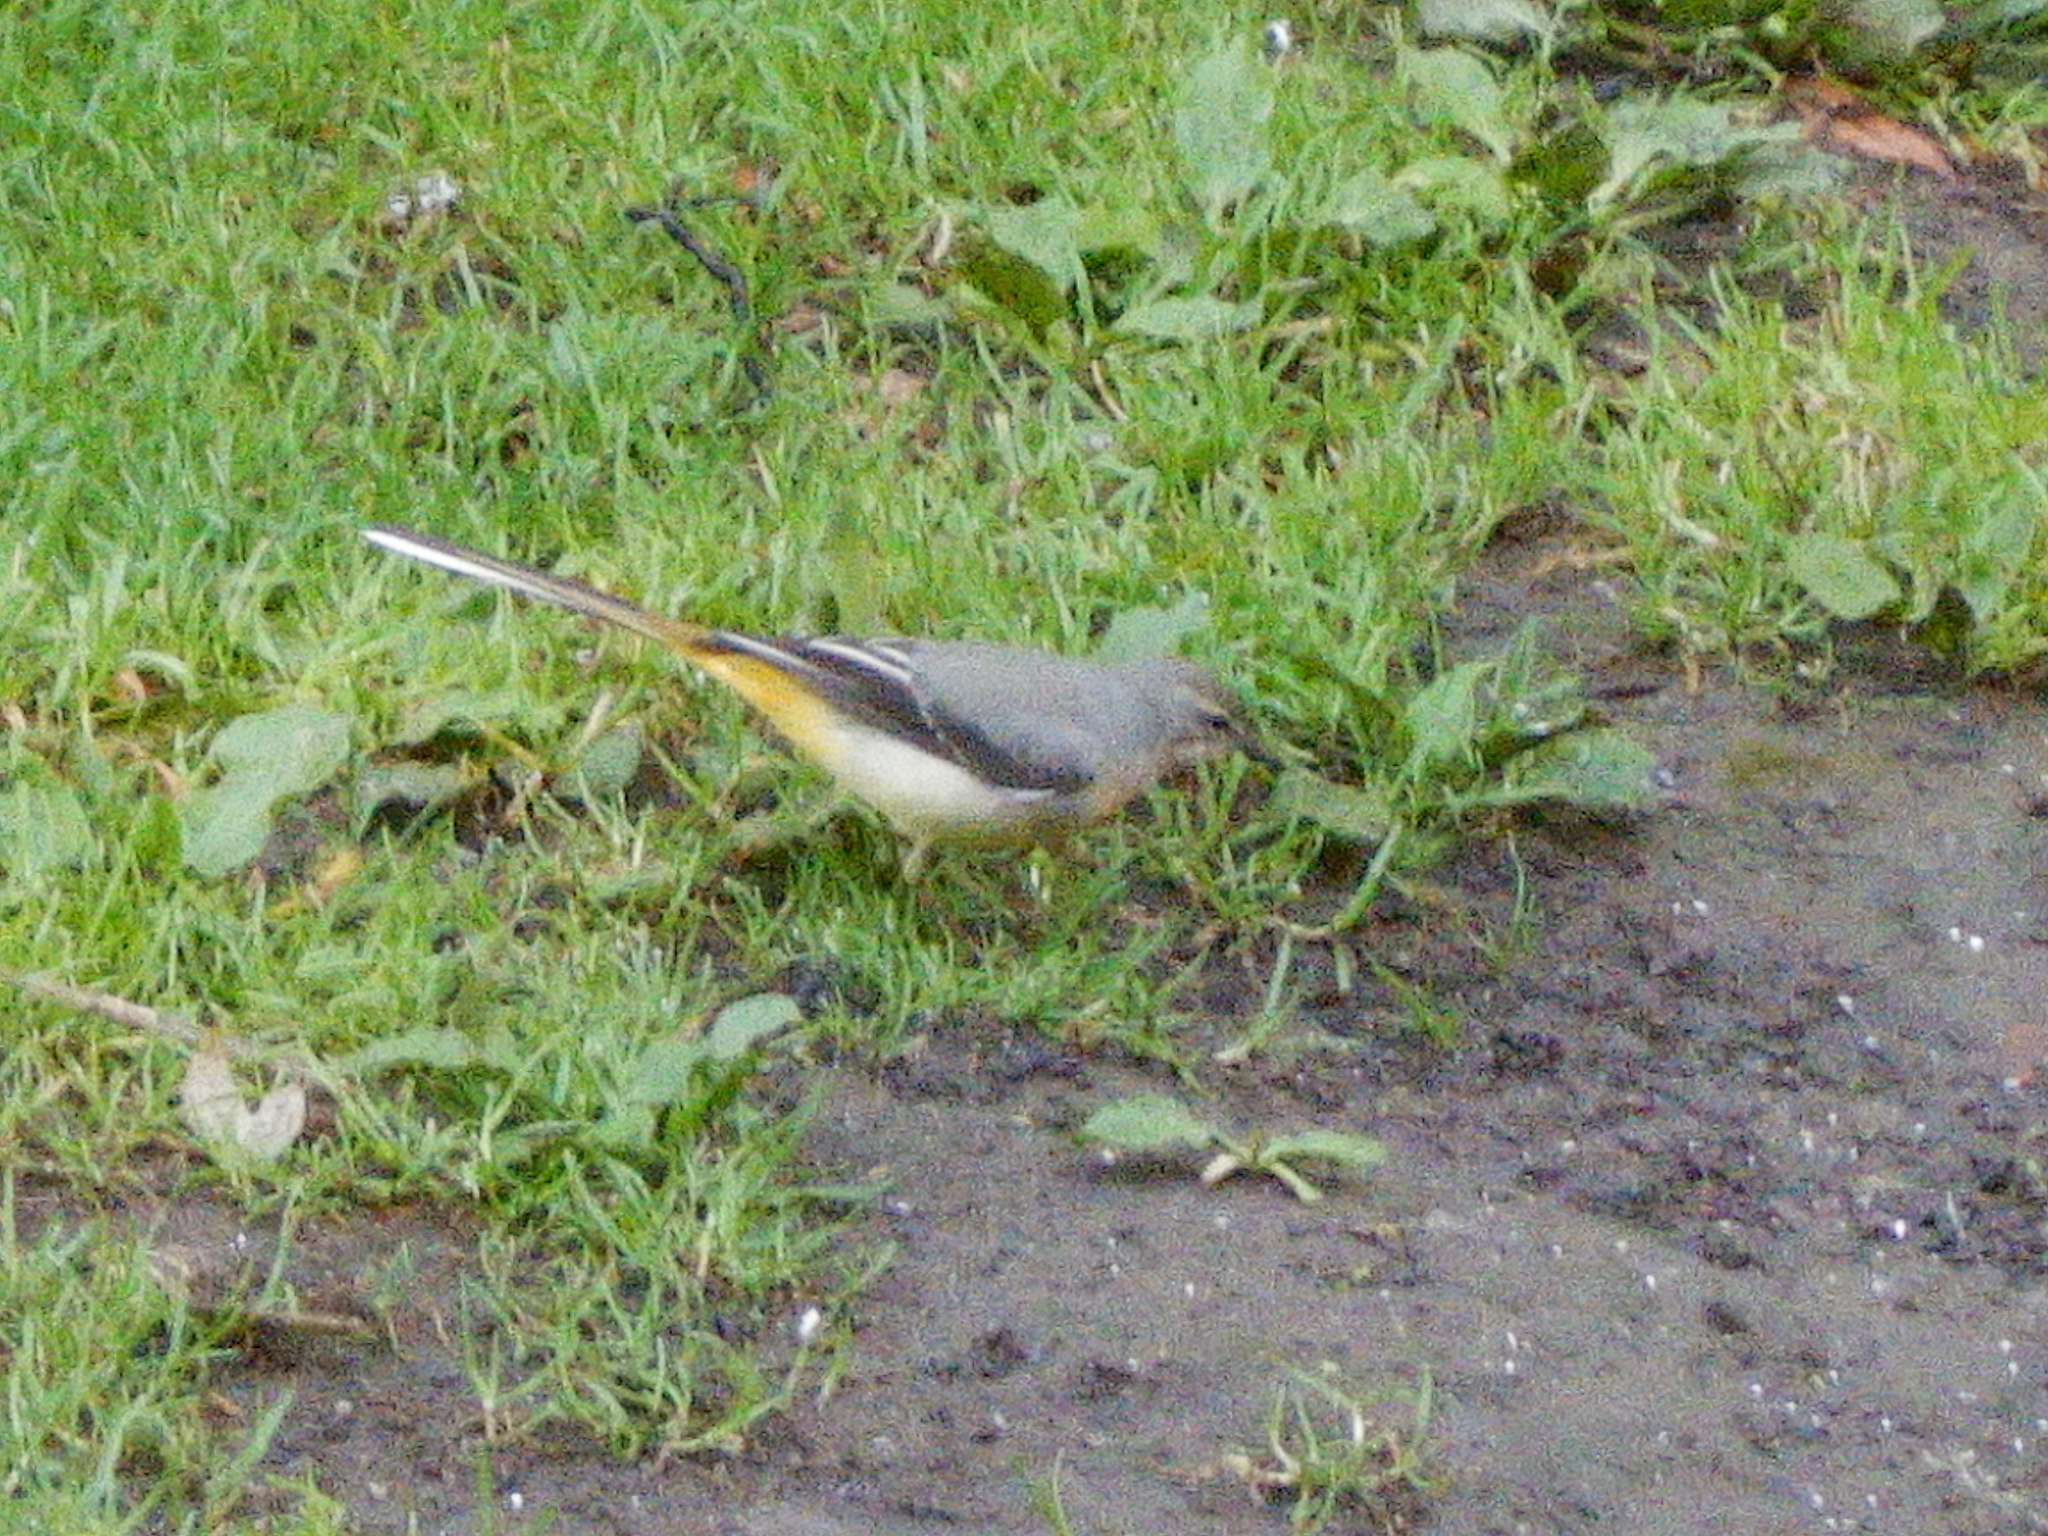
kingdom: Animalia
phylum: Chordata
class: Aves
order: Passeriformes
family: Motacillidae
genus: Motacilla
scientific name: Motacilla cinerea
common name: Grey wagtail
